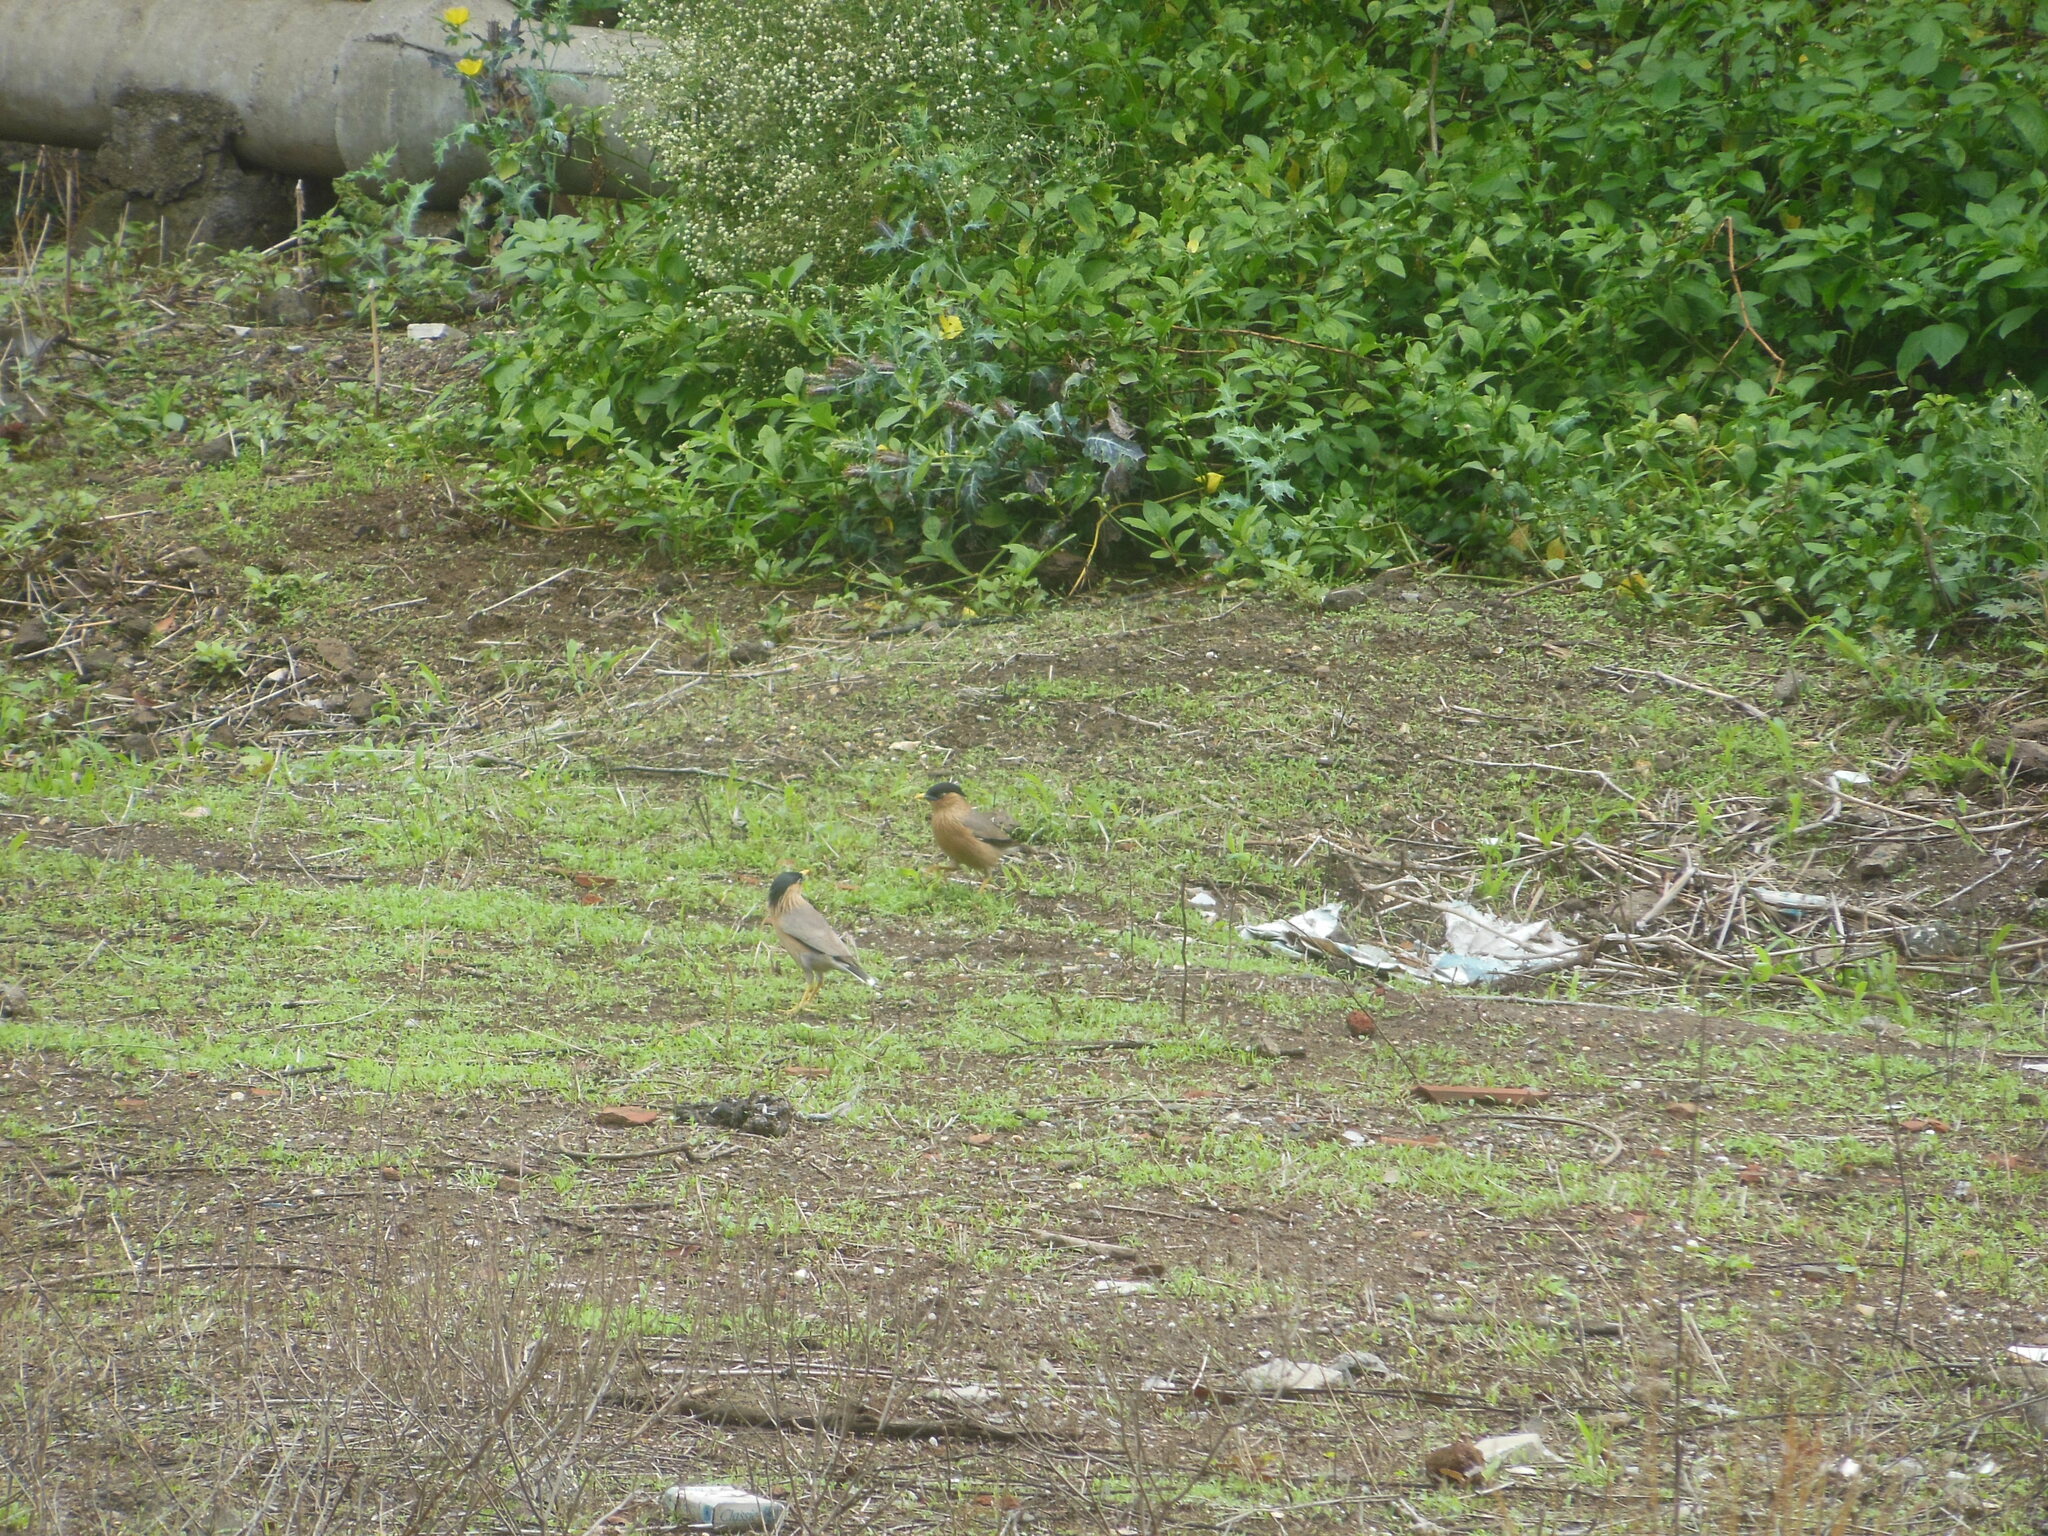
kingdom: Animalia
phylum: Chordata
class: Aves
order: Passeriformes
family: Sturnidae
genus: Sturnia
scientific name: Sturnia pagodarum
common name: Brahminy starling
